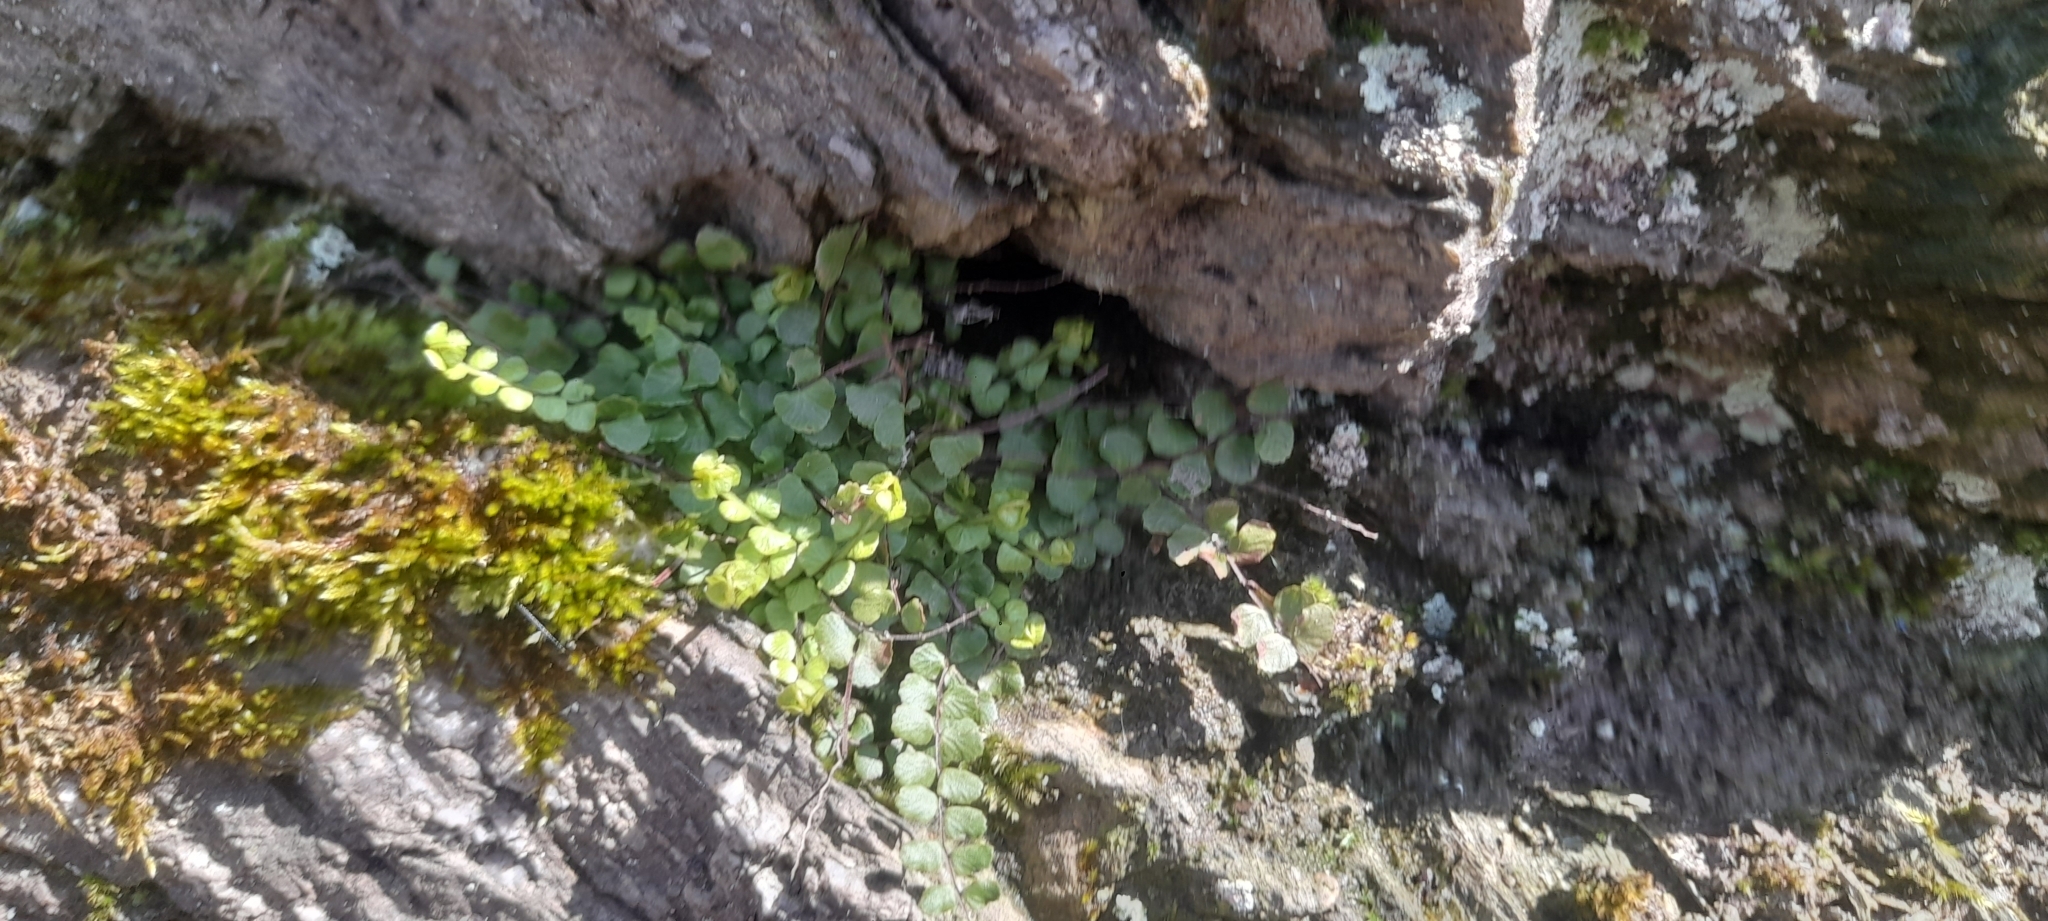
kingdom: Plantae
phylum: Tracheophyta
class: Polypodiopsida
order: Polypodiales
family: Aspleniaceae
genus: Asplenium
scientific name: Asplenium trichomanes
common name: Maidenhair spleenwort
